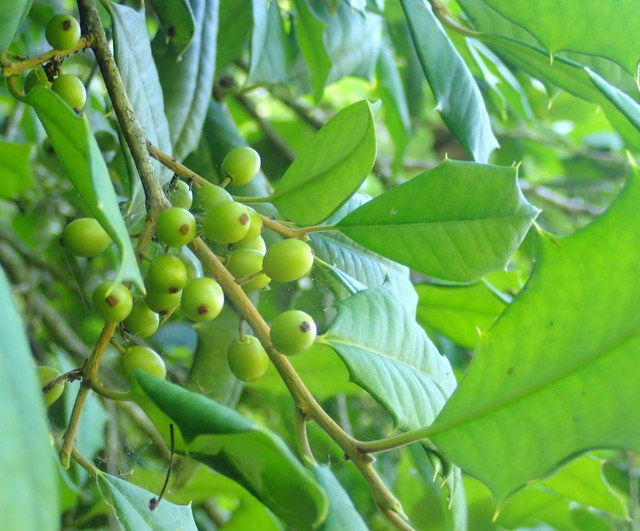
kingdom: Plantae
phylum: Tracheophyta
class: Magnoliopsida
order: Aquifoliales
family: Aquifoliaceae
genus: Ilex
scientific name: Ilex opaca
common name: American holly
